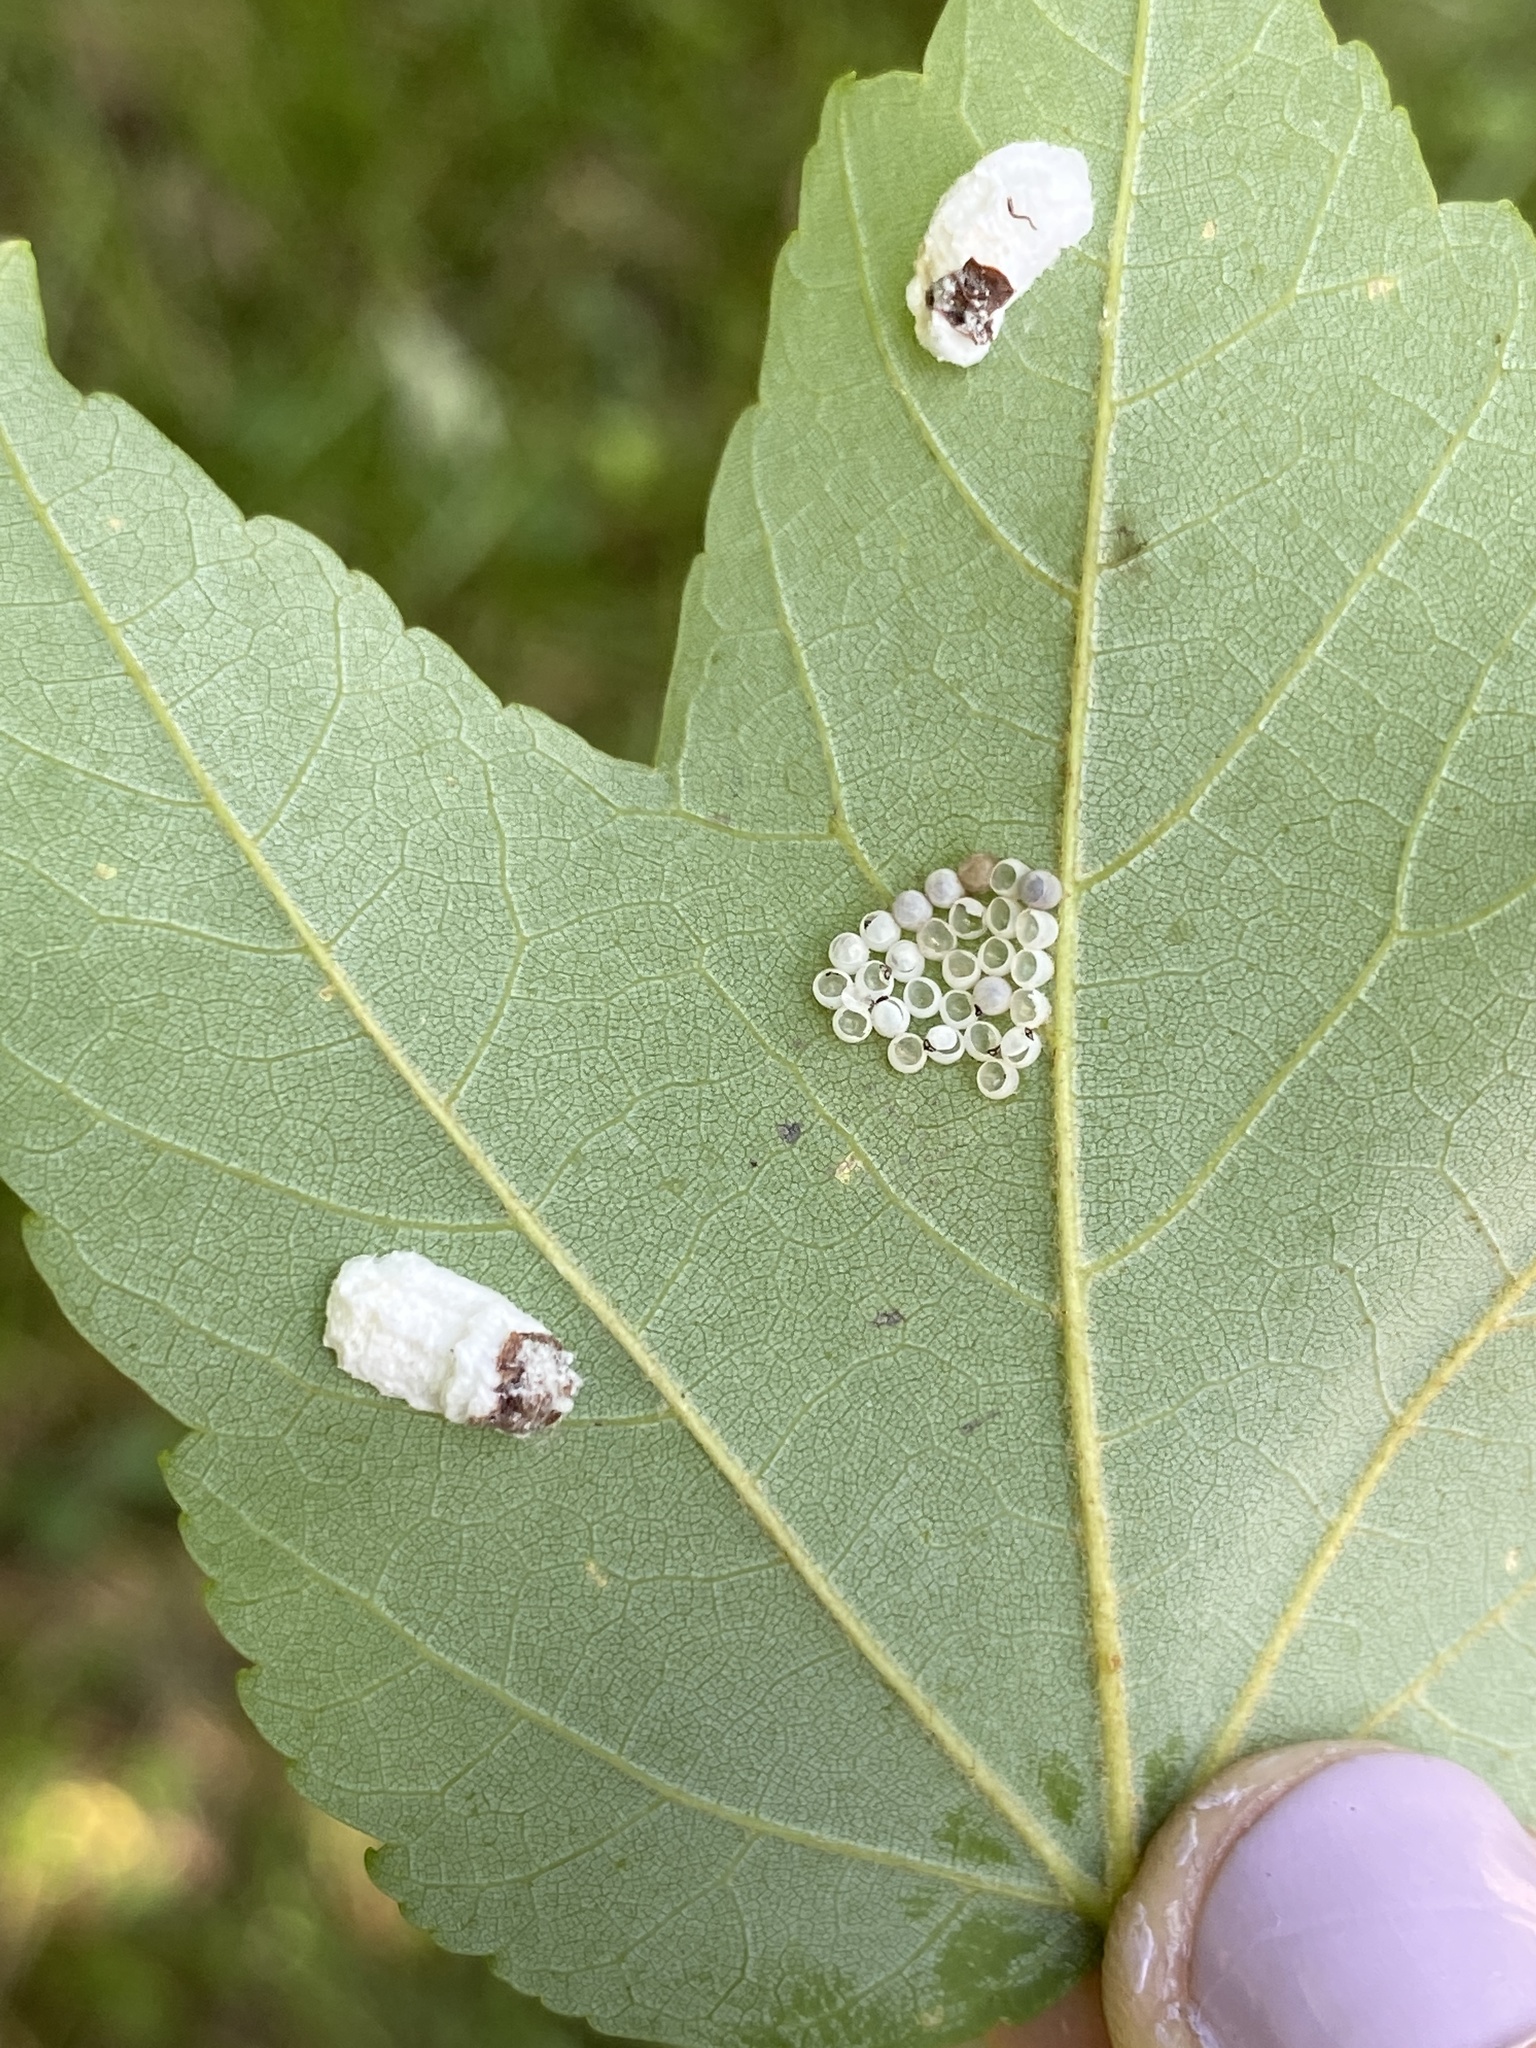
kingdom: Animalia
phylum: Arthropoda
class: Insecta
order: Hemiptera
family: Coccidae
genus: Pulvinaria
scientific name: Pulvinaria acericola
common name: Cottony maple leaf scale
